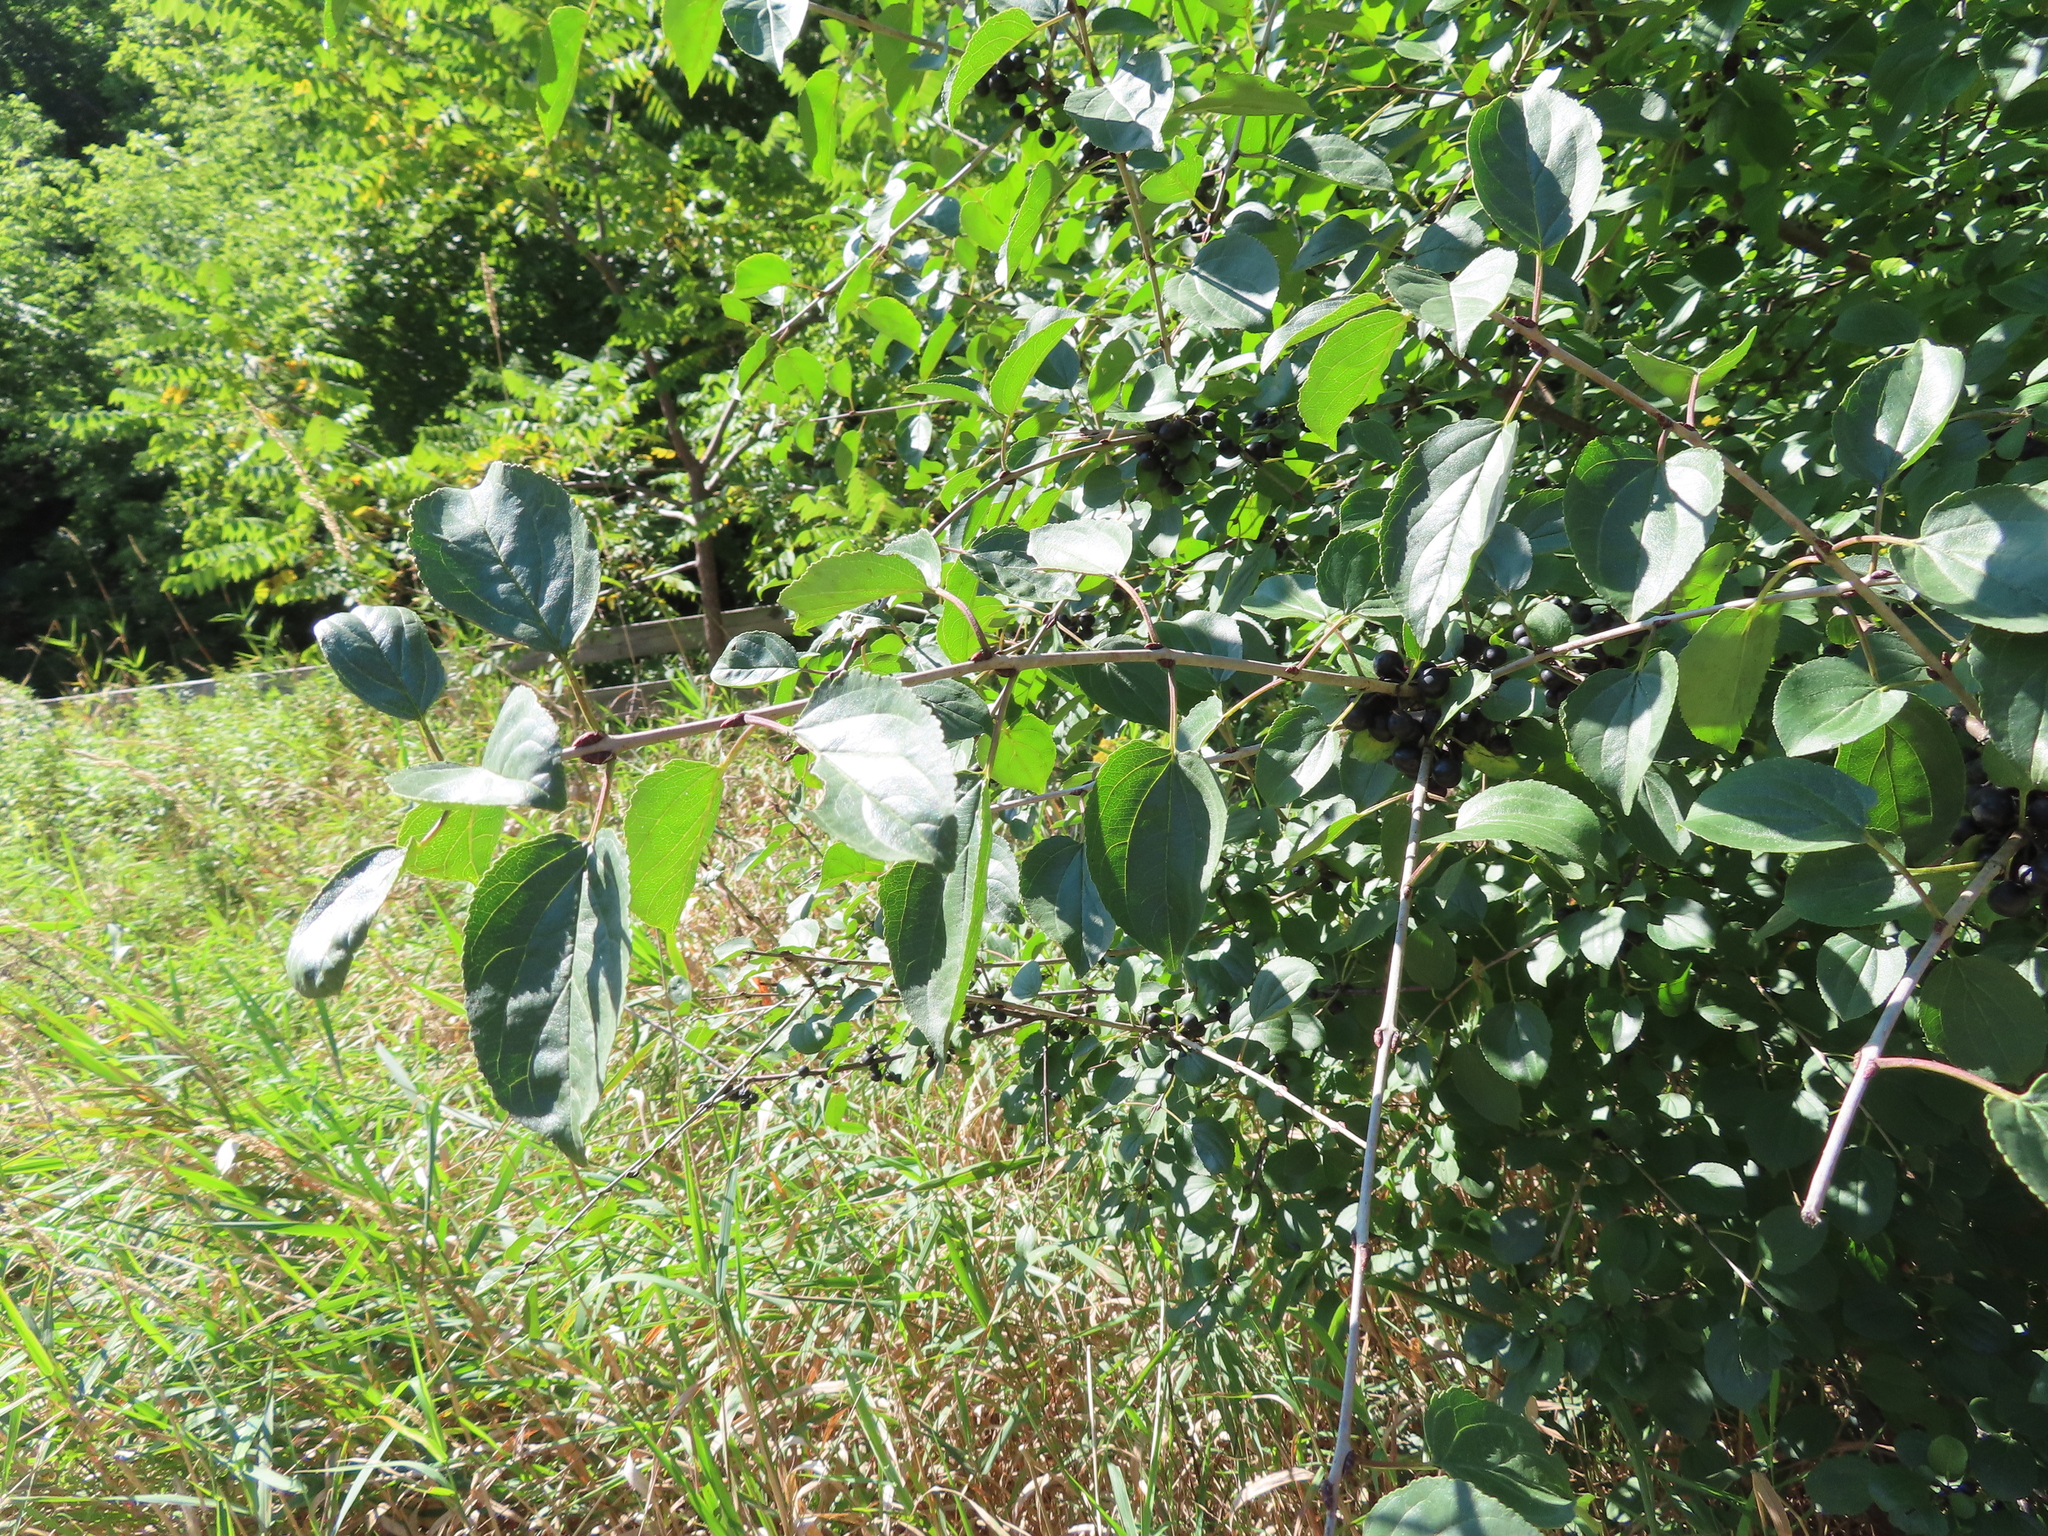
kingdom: Plantae
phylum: Tracheophyta
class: Magnoliopsida
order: Rosales
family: Rhamnaceae
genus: Rhamnus
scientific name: Rhamnus cathartica
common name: Common buckthorn
